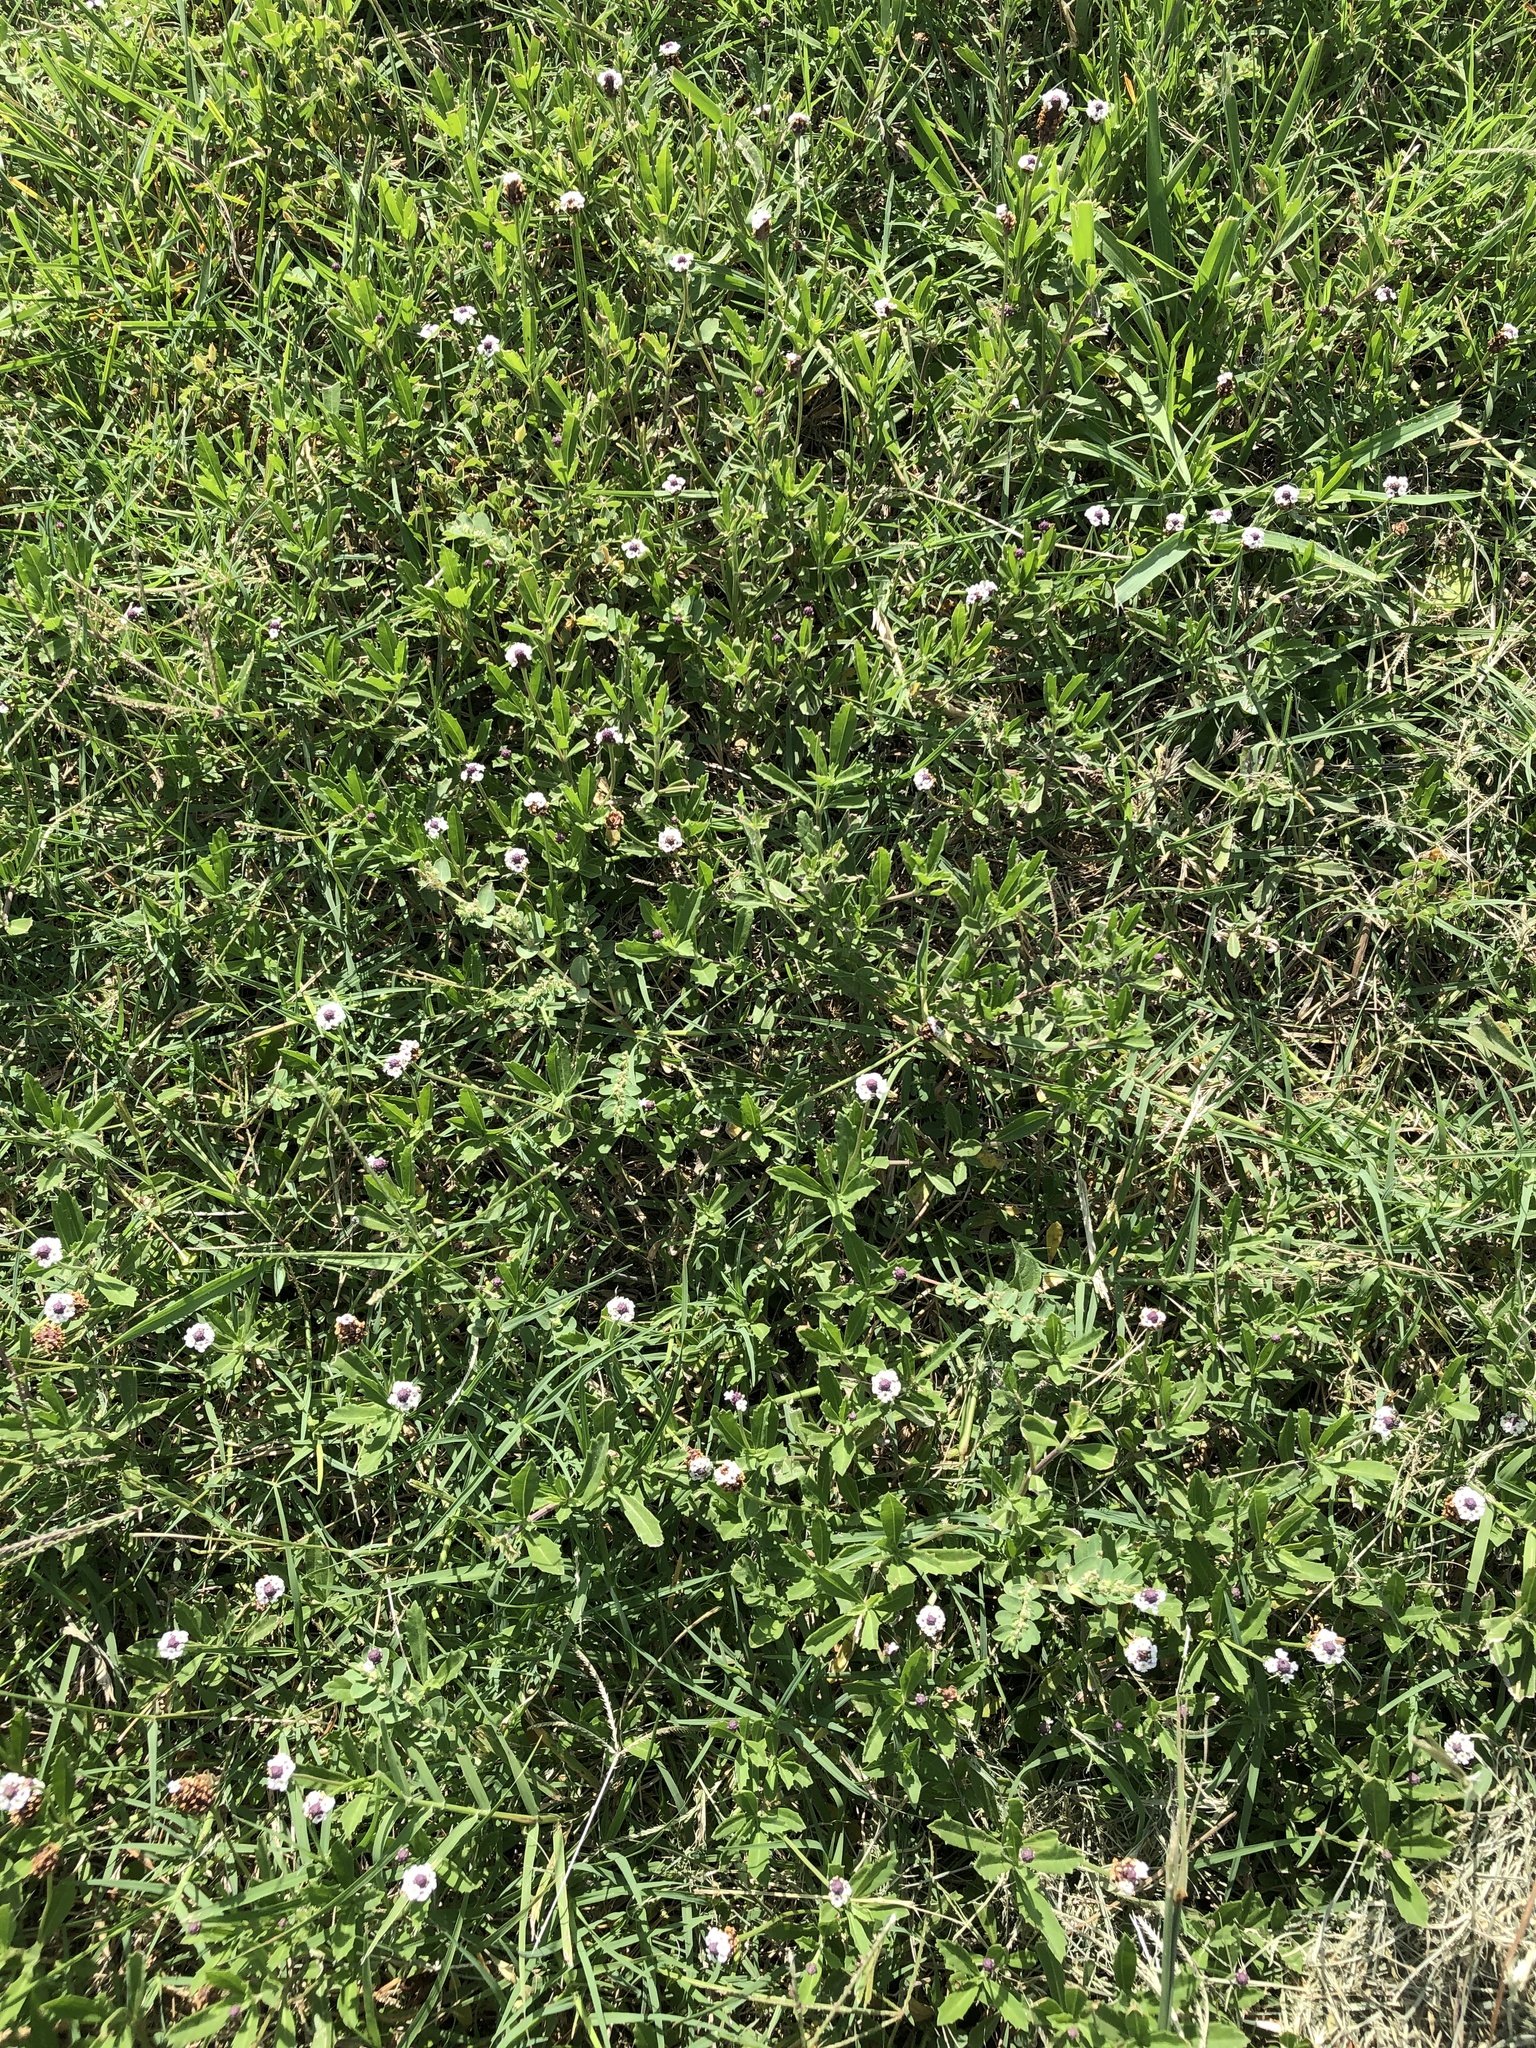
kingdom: Plantae
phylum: Tracheophyta
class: Magnoliopsida
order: Lamiales
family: Verbenaceae
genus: Phyla
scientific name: Phyla nodiflora
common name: Frogfruit
